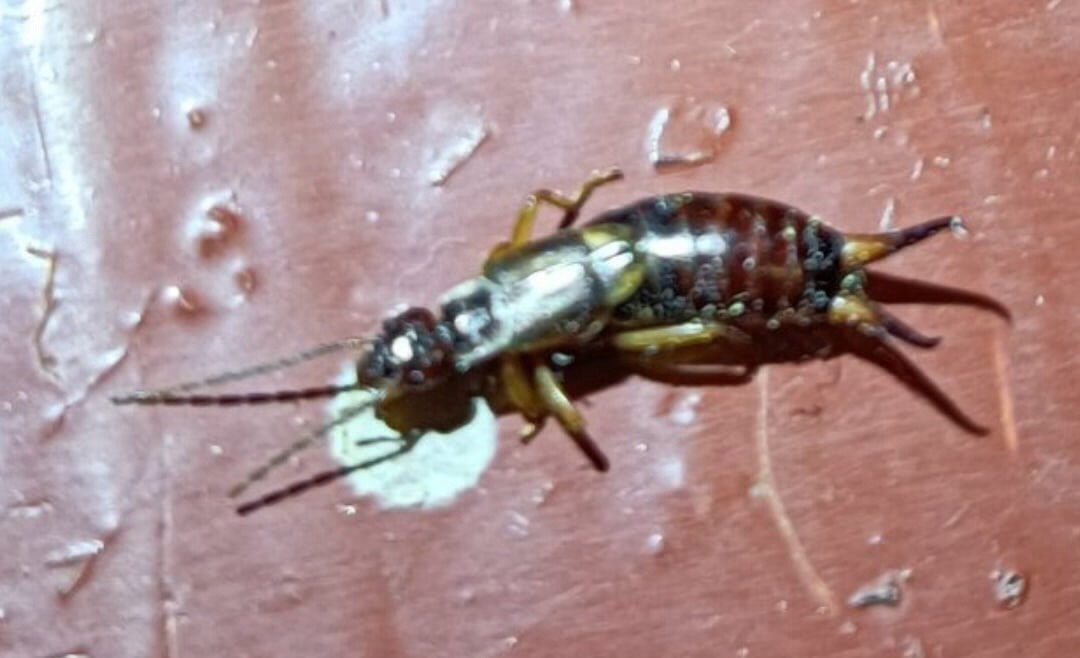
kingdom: Animalia
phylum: Arthropoda
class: Insecta
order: Dermaptera
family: Forficulidae
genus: Forficula
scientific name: Forficula
